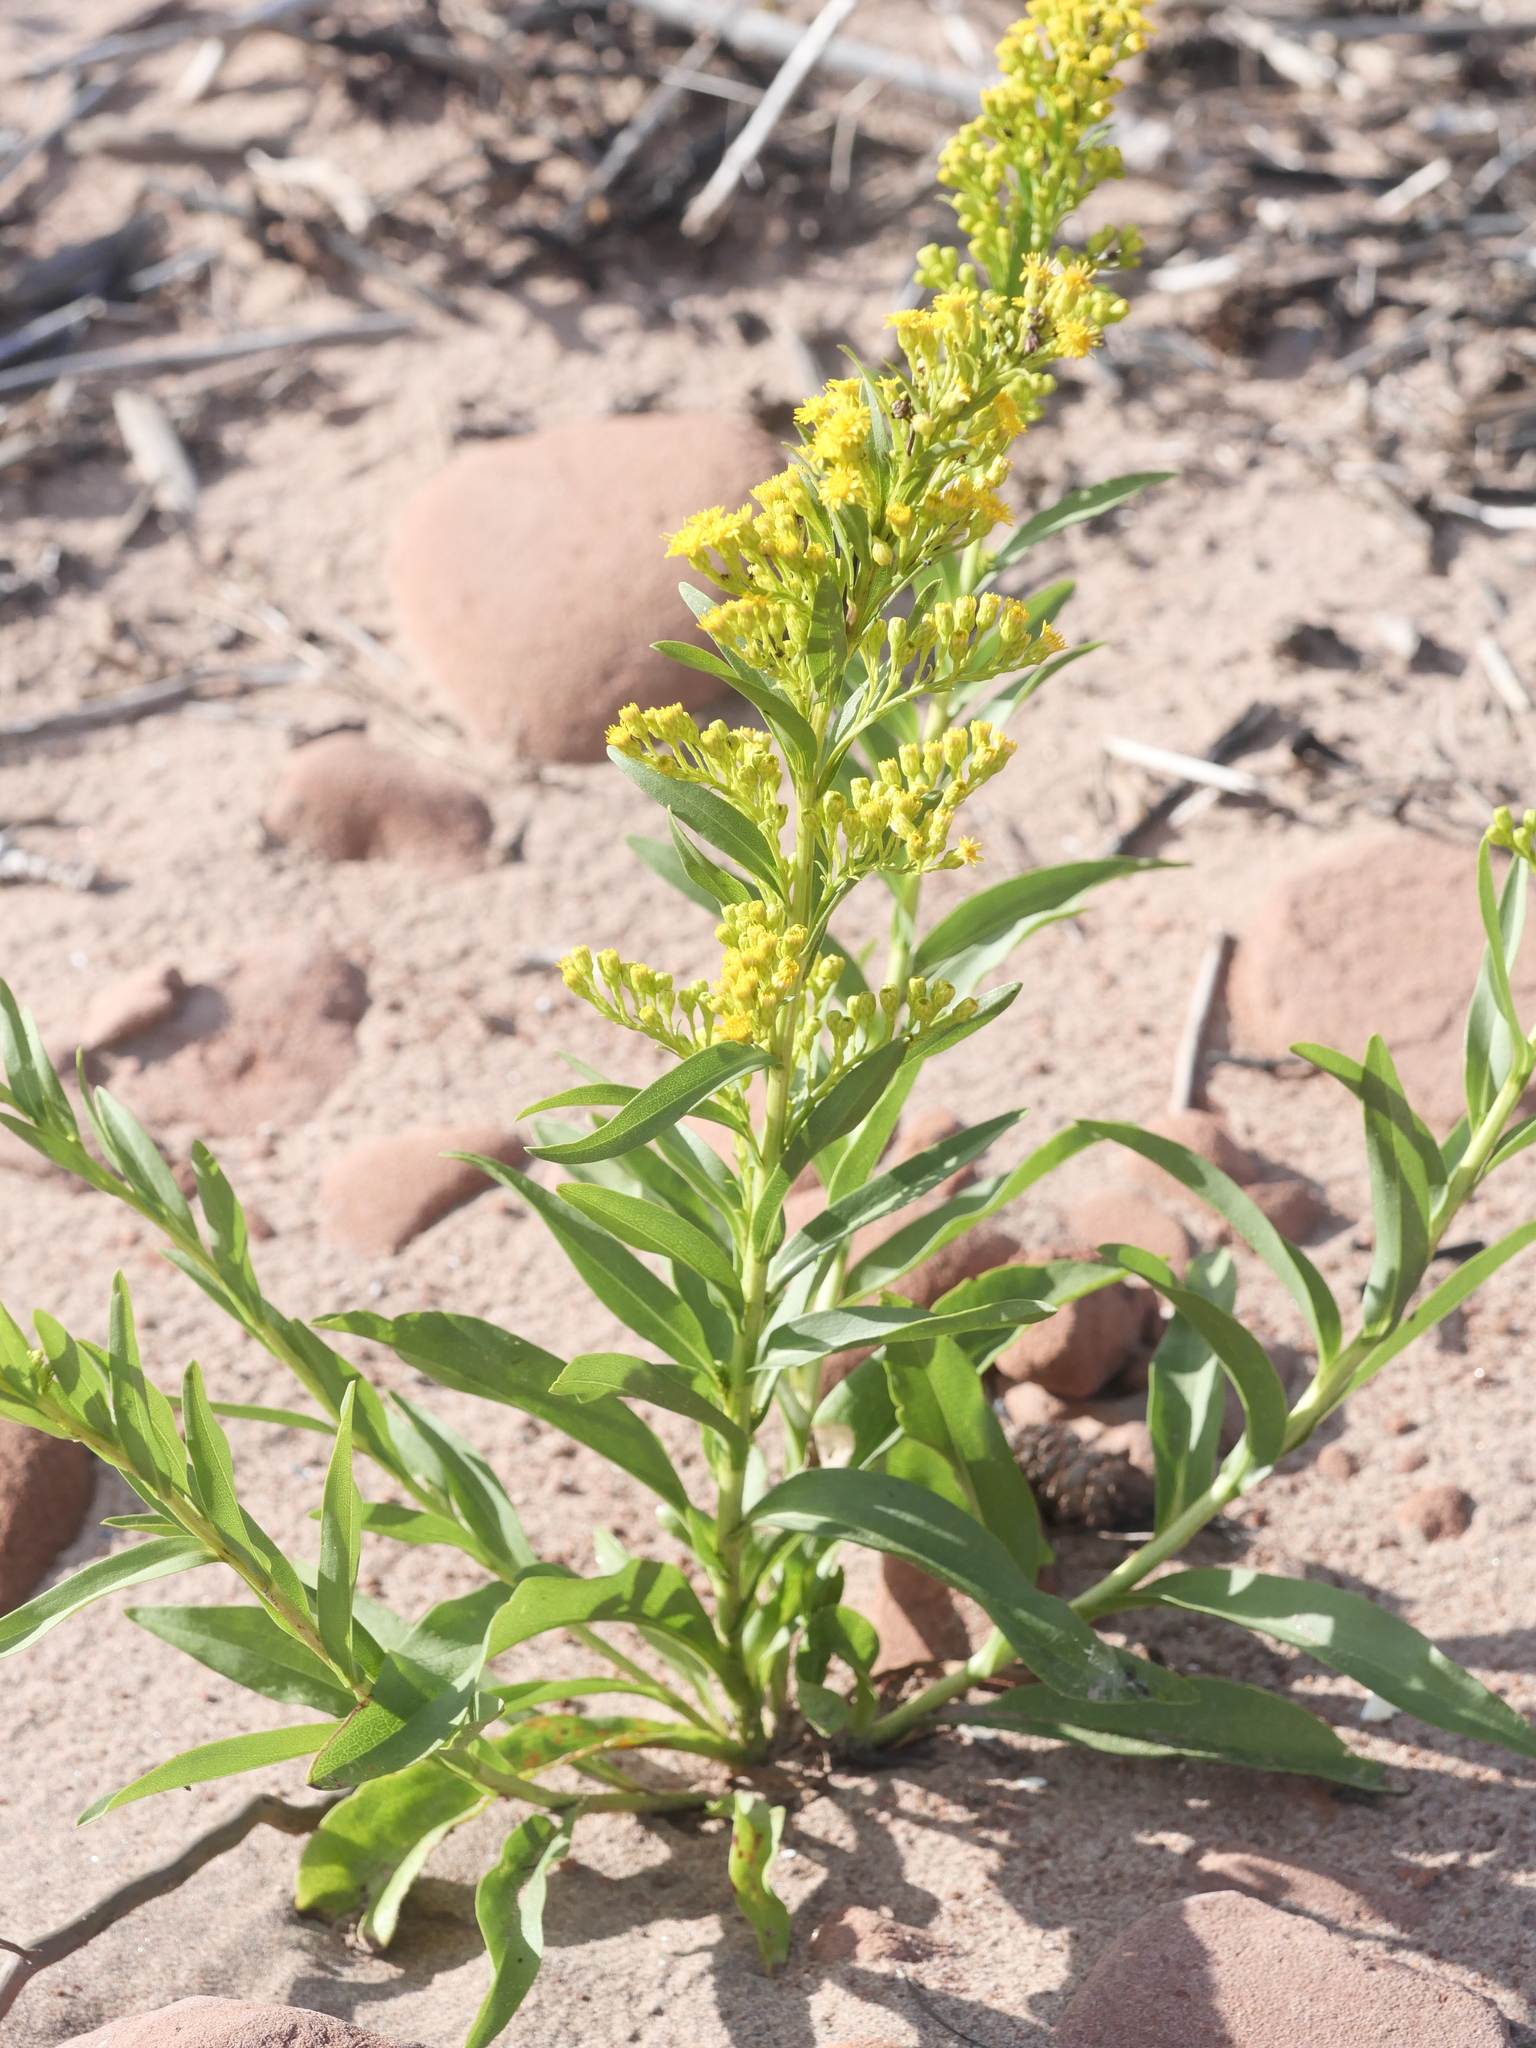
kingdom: Plantae
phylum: Tracheophyta
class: Magnoliopsida
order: Asterales
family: Asteraceae
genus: Solidago
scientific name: Solidago sempervirens
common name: Salt-marsh goldenrod
